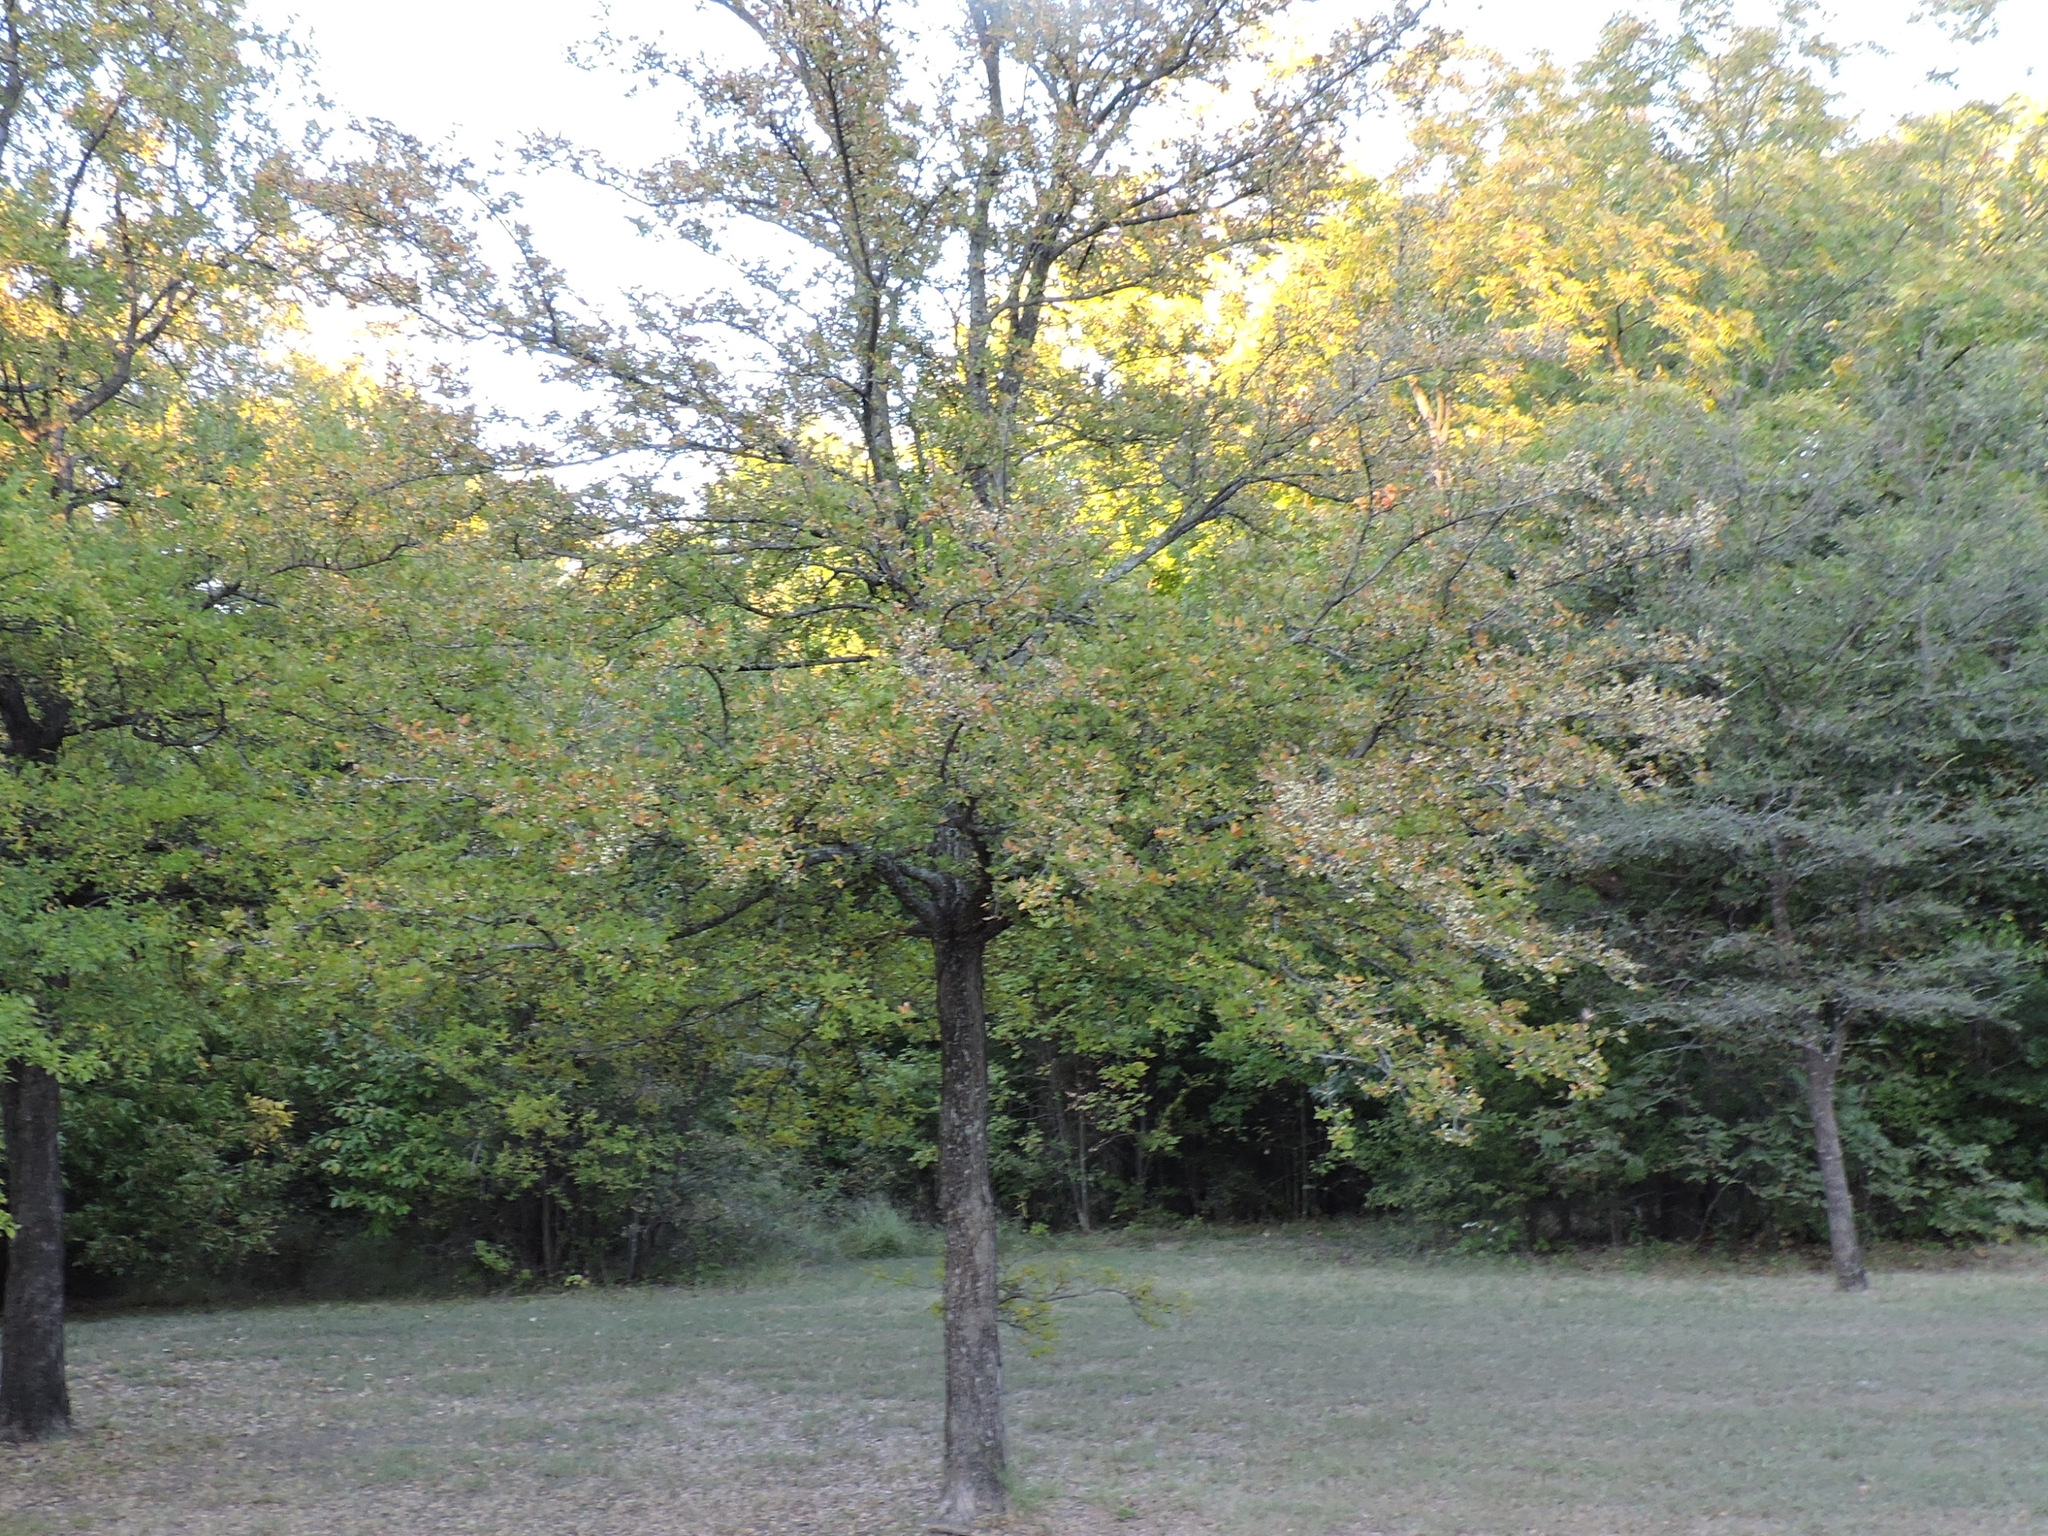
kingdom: Plantae
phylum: Tracheophyta
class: Magnoliopsida
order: Rosales
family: Ulmaceae
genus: Ulmus
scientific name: Ulmus crassifolia
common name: Basket elm
